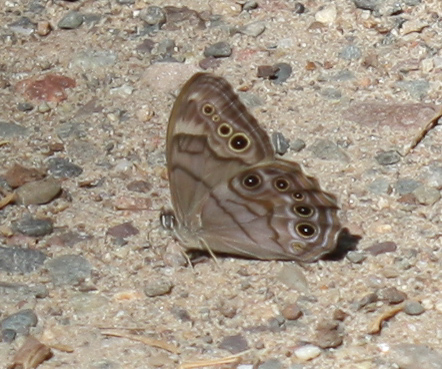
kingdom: Animalia
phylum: Arthropoda
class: Insecta
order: Lepidoptera
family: Nymphalidae
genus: Lethe
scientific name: Lethe anthedon
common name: Northern pearly-eye
